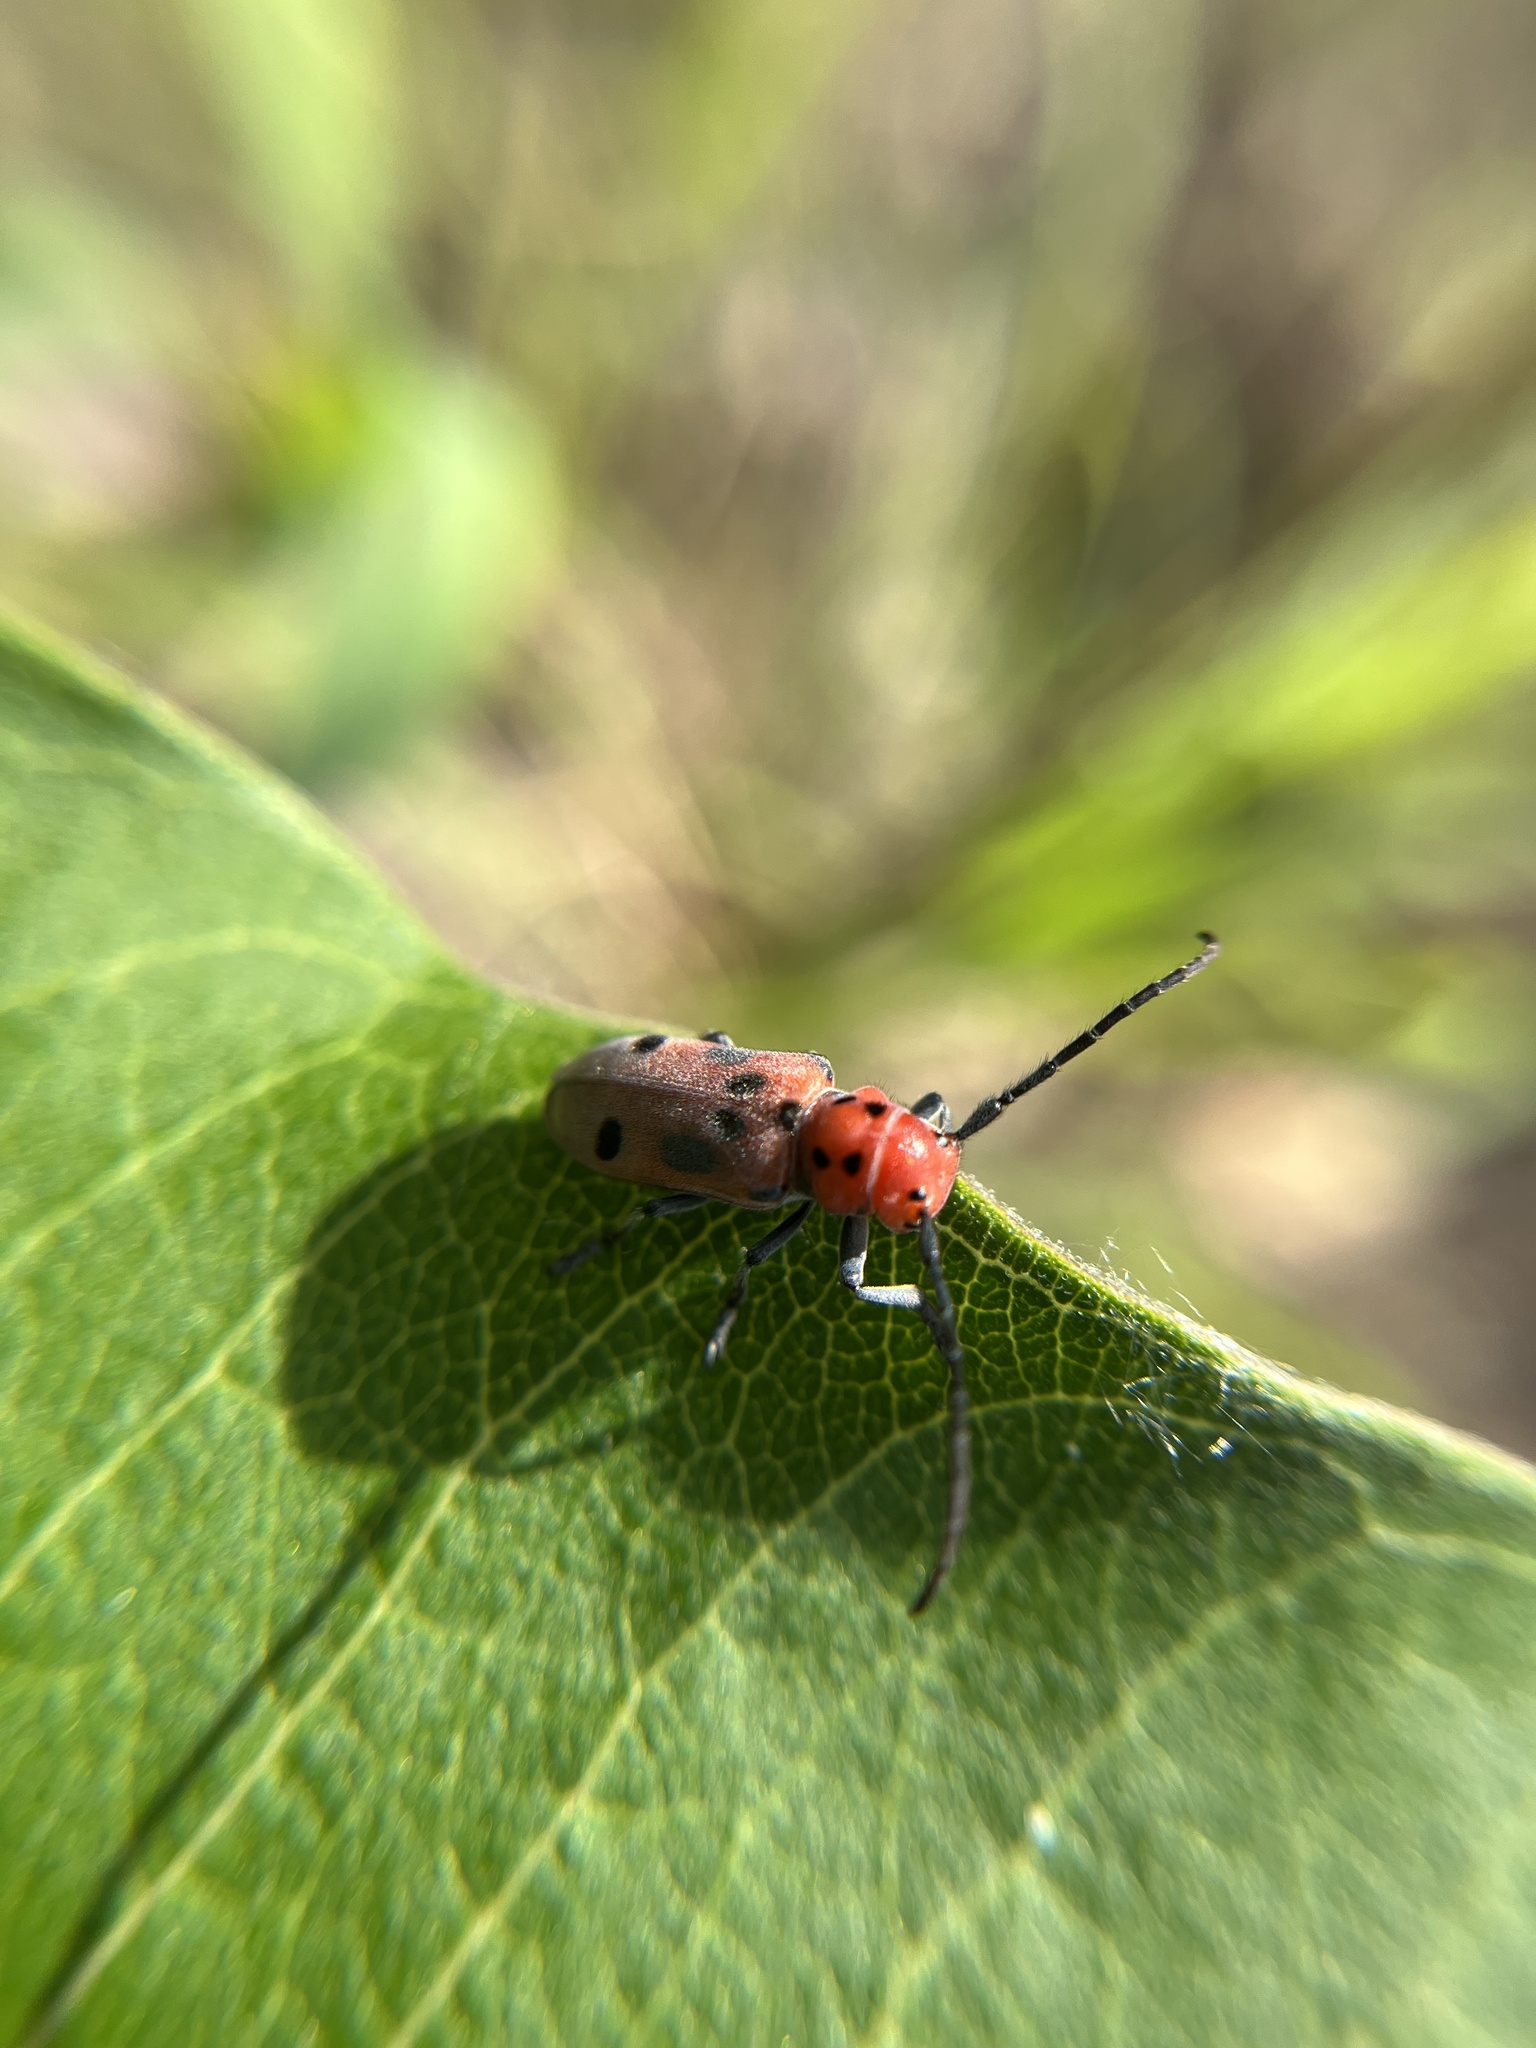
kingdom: Animalia
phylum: Arthropoda
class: Insecta
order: Coleoptera
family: Cerambycidae
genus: Tetraopes
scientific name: Tetraopes tetrophthalmus
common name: Red milkweed beetle
